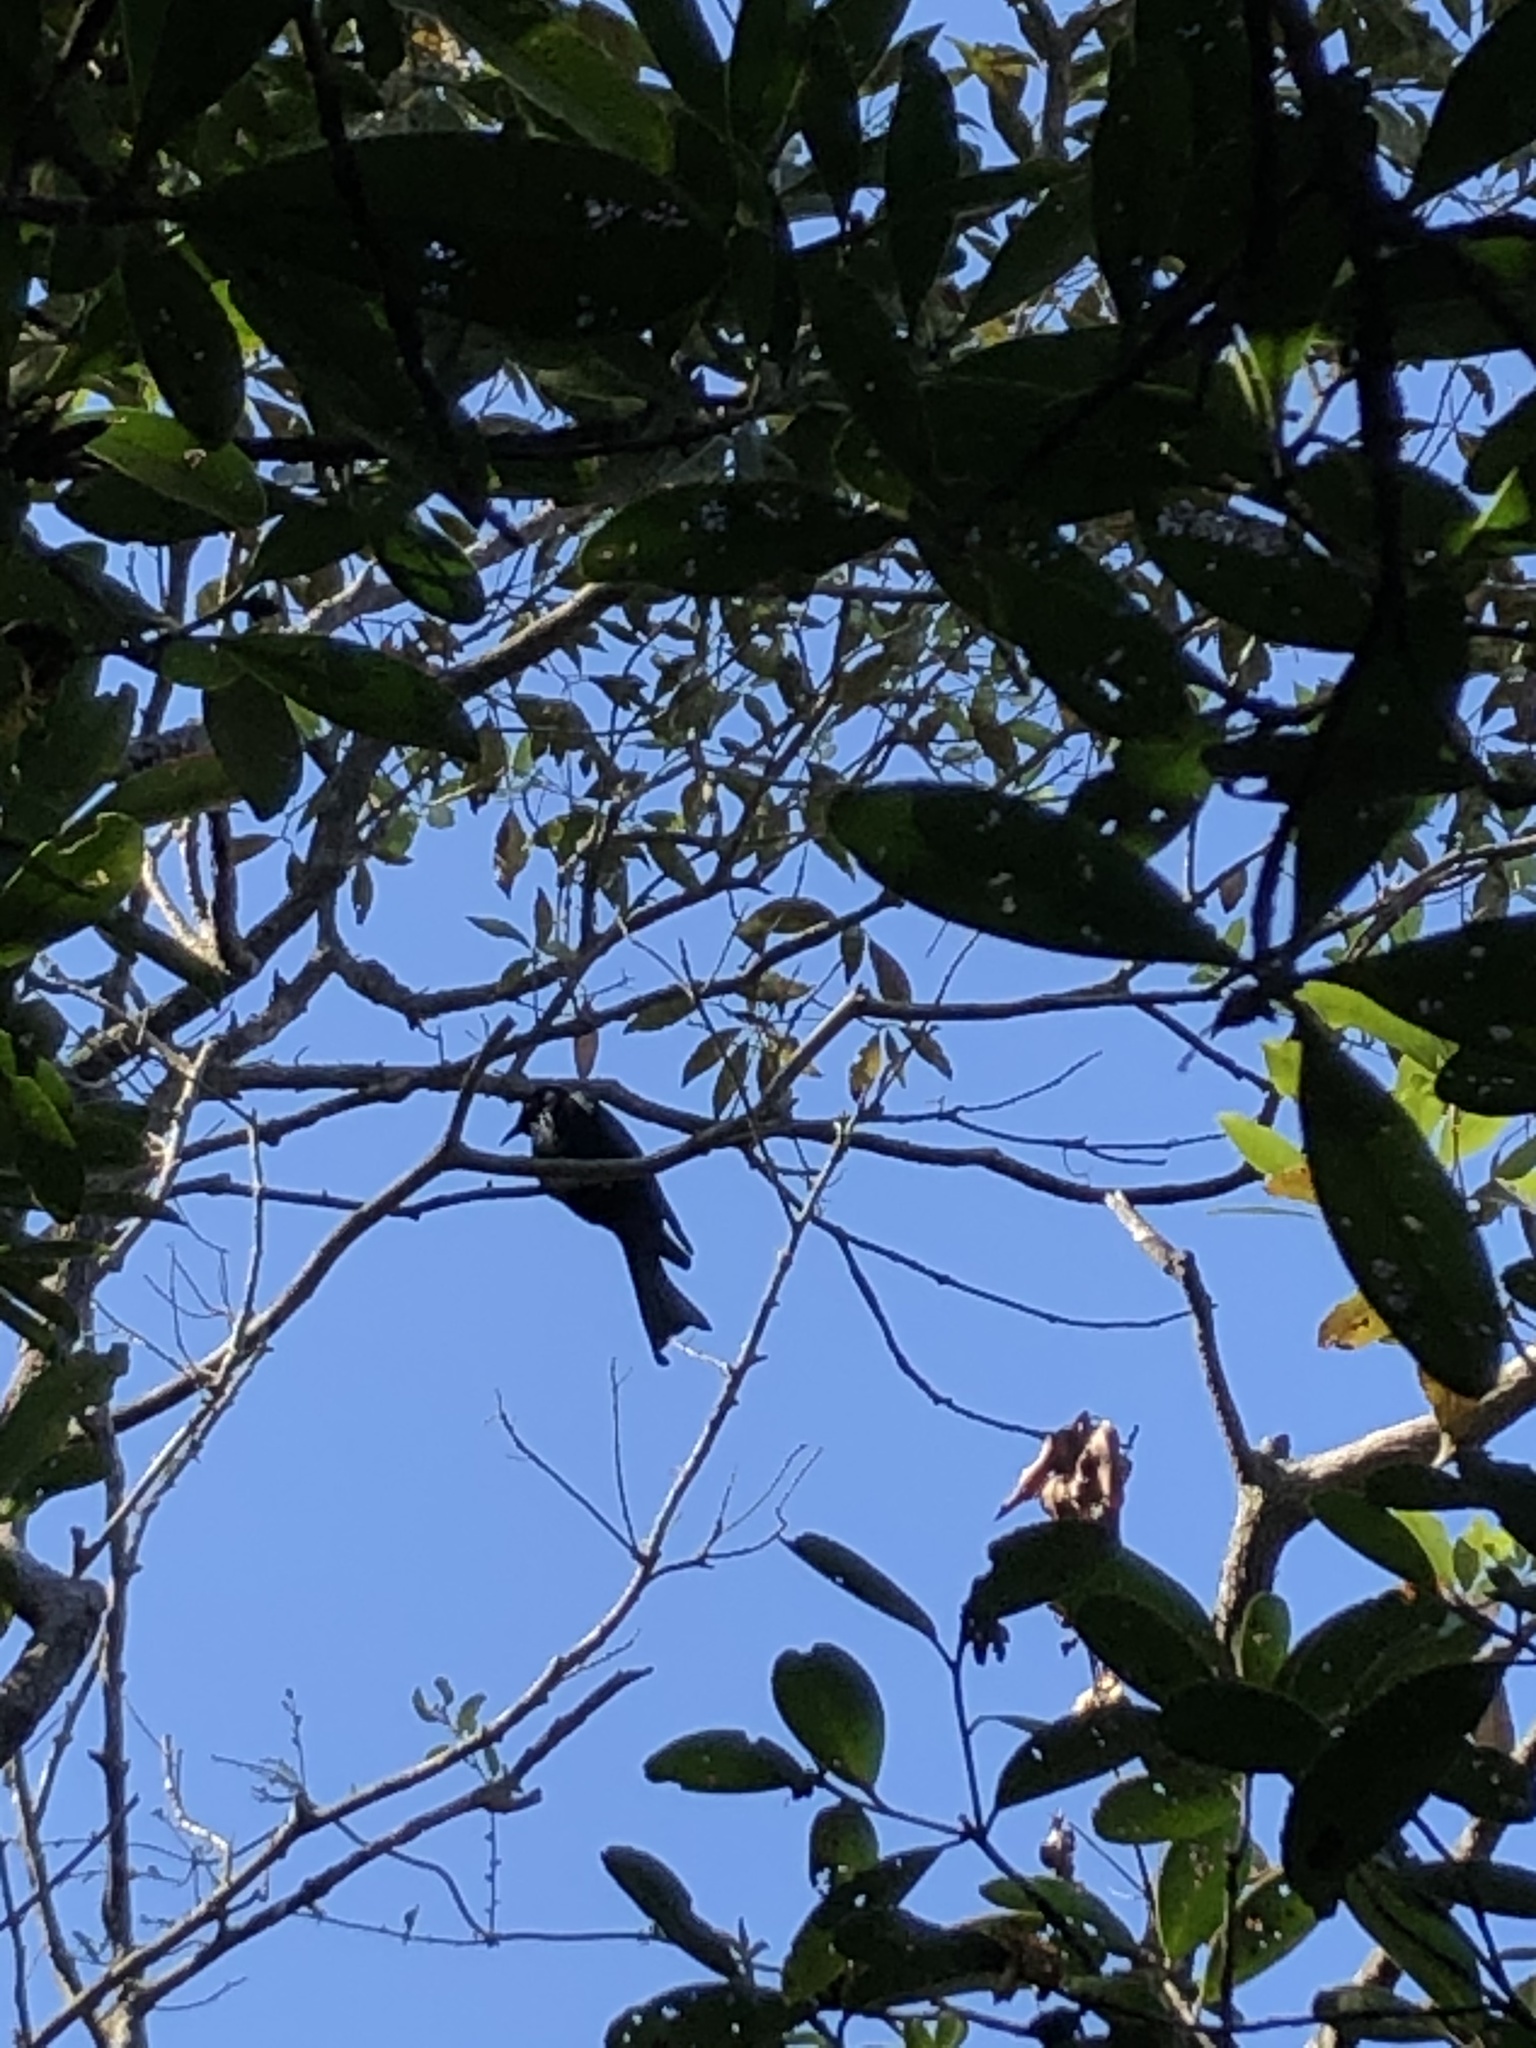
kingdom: Animalia
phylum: Chordata
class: Aves
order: Passeriformes
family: Dicruridae
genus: Dicrurus
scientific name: Dicrurus hottentottus
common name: Hair-crested drongo
